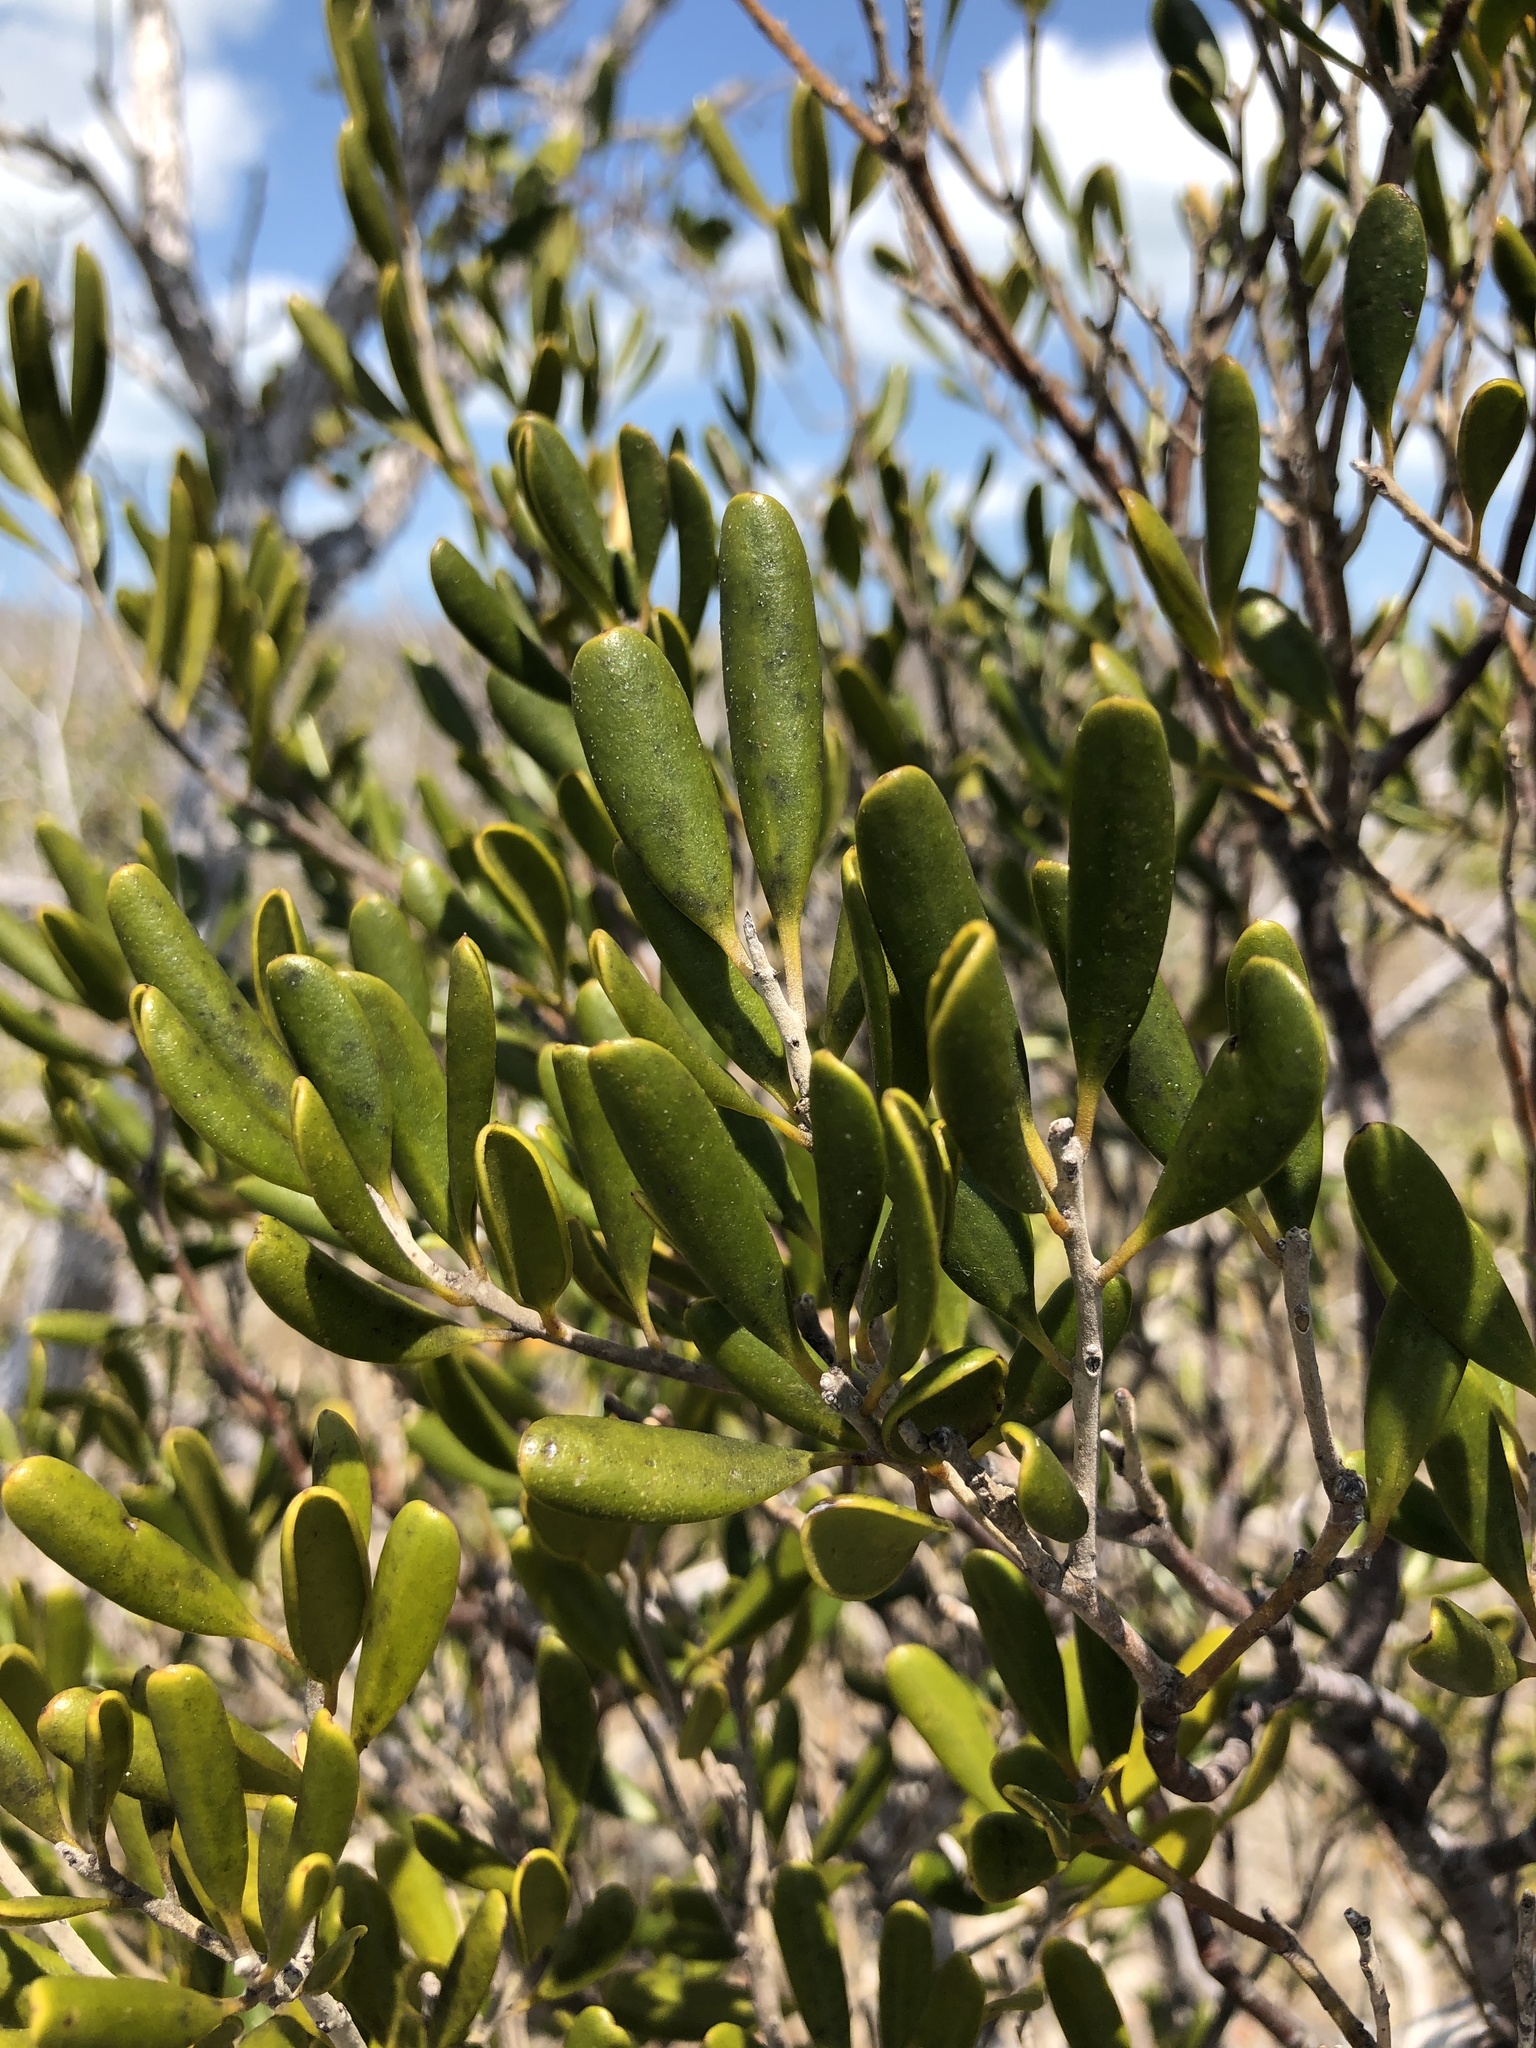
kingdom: Plantae
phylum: Tracheophyta
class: Magnoliopsida
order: Ericales
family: Primulaceae
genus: Jacquinia
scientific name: Jacquinia keyensis
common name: Joebush
